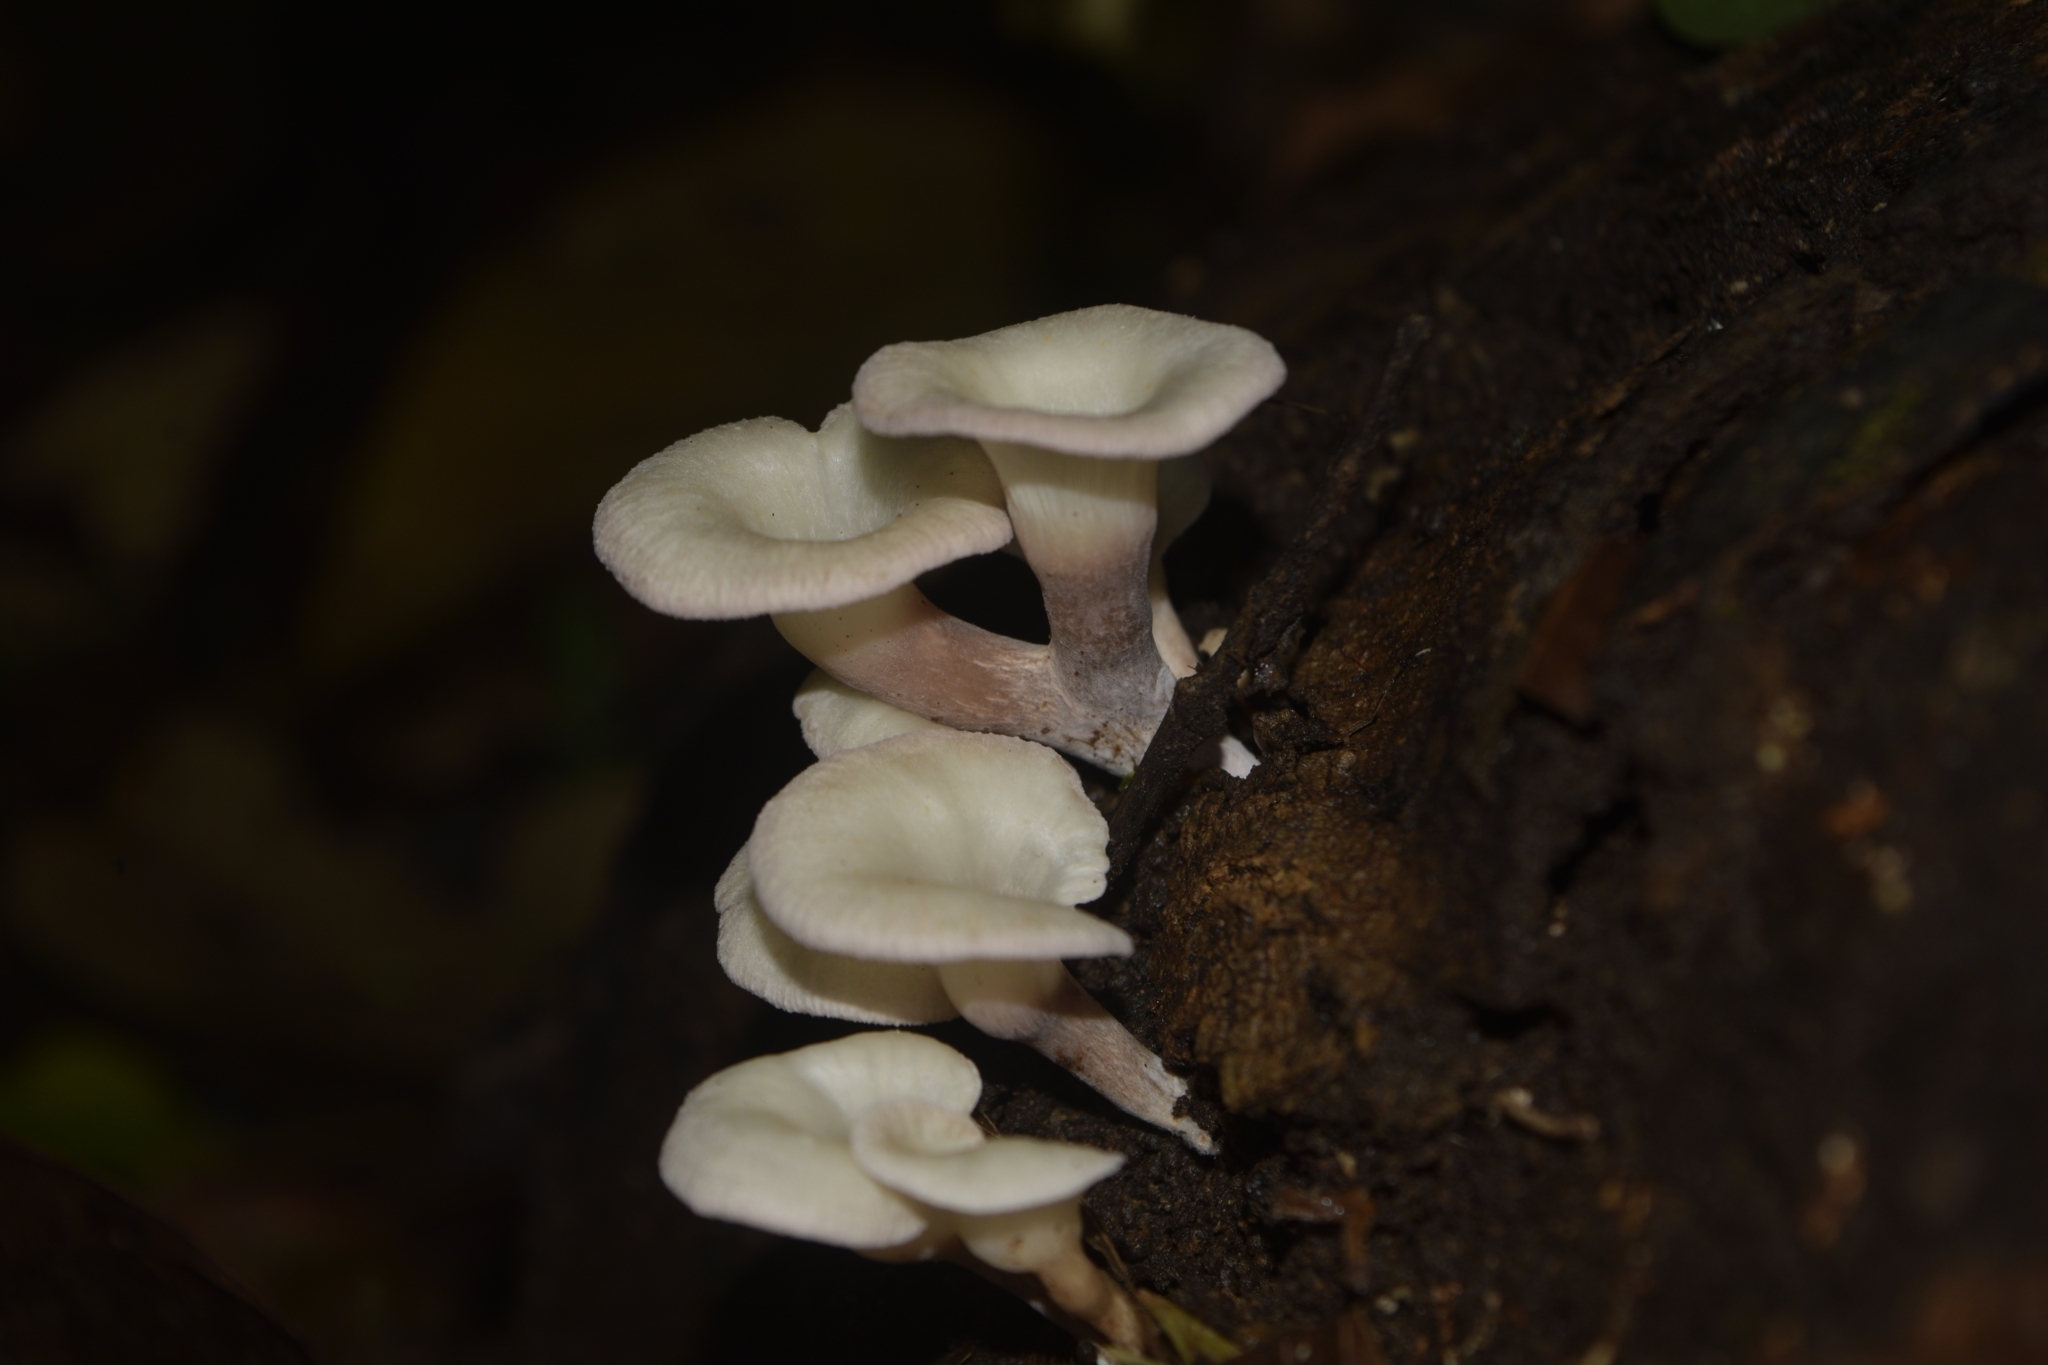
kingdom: Fungi
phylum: Basidiomycota
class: Agaricomycetes
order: Polyporales
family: Polyporaceae
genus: Lentinus
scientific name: Lentinus concavus
